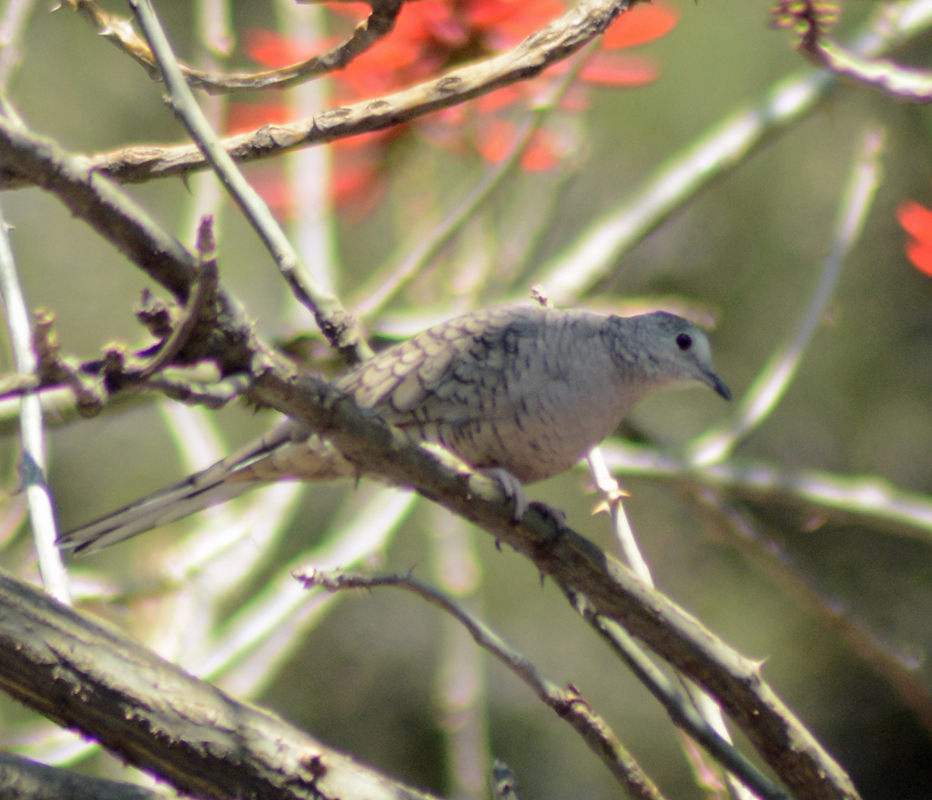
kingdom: Animalia
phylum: Chordata
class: Aves
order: Columbiformes
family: Columbidae
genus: Columbina
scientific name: Columbina inca
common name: Inca dove
